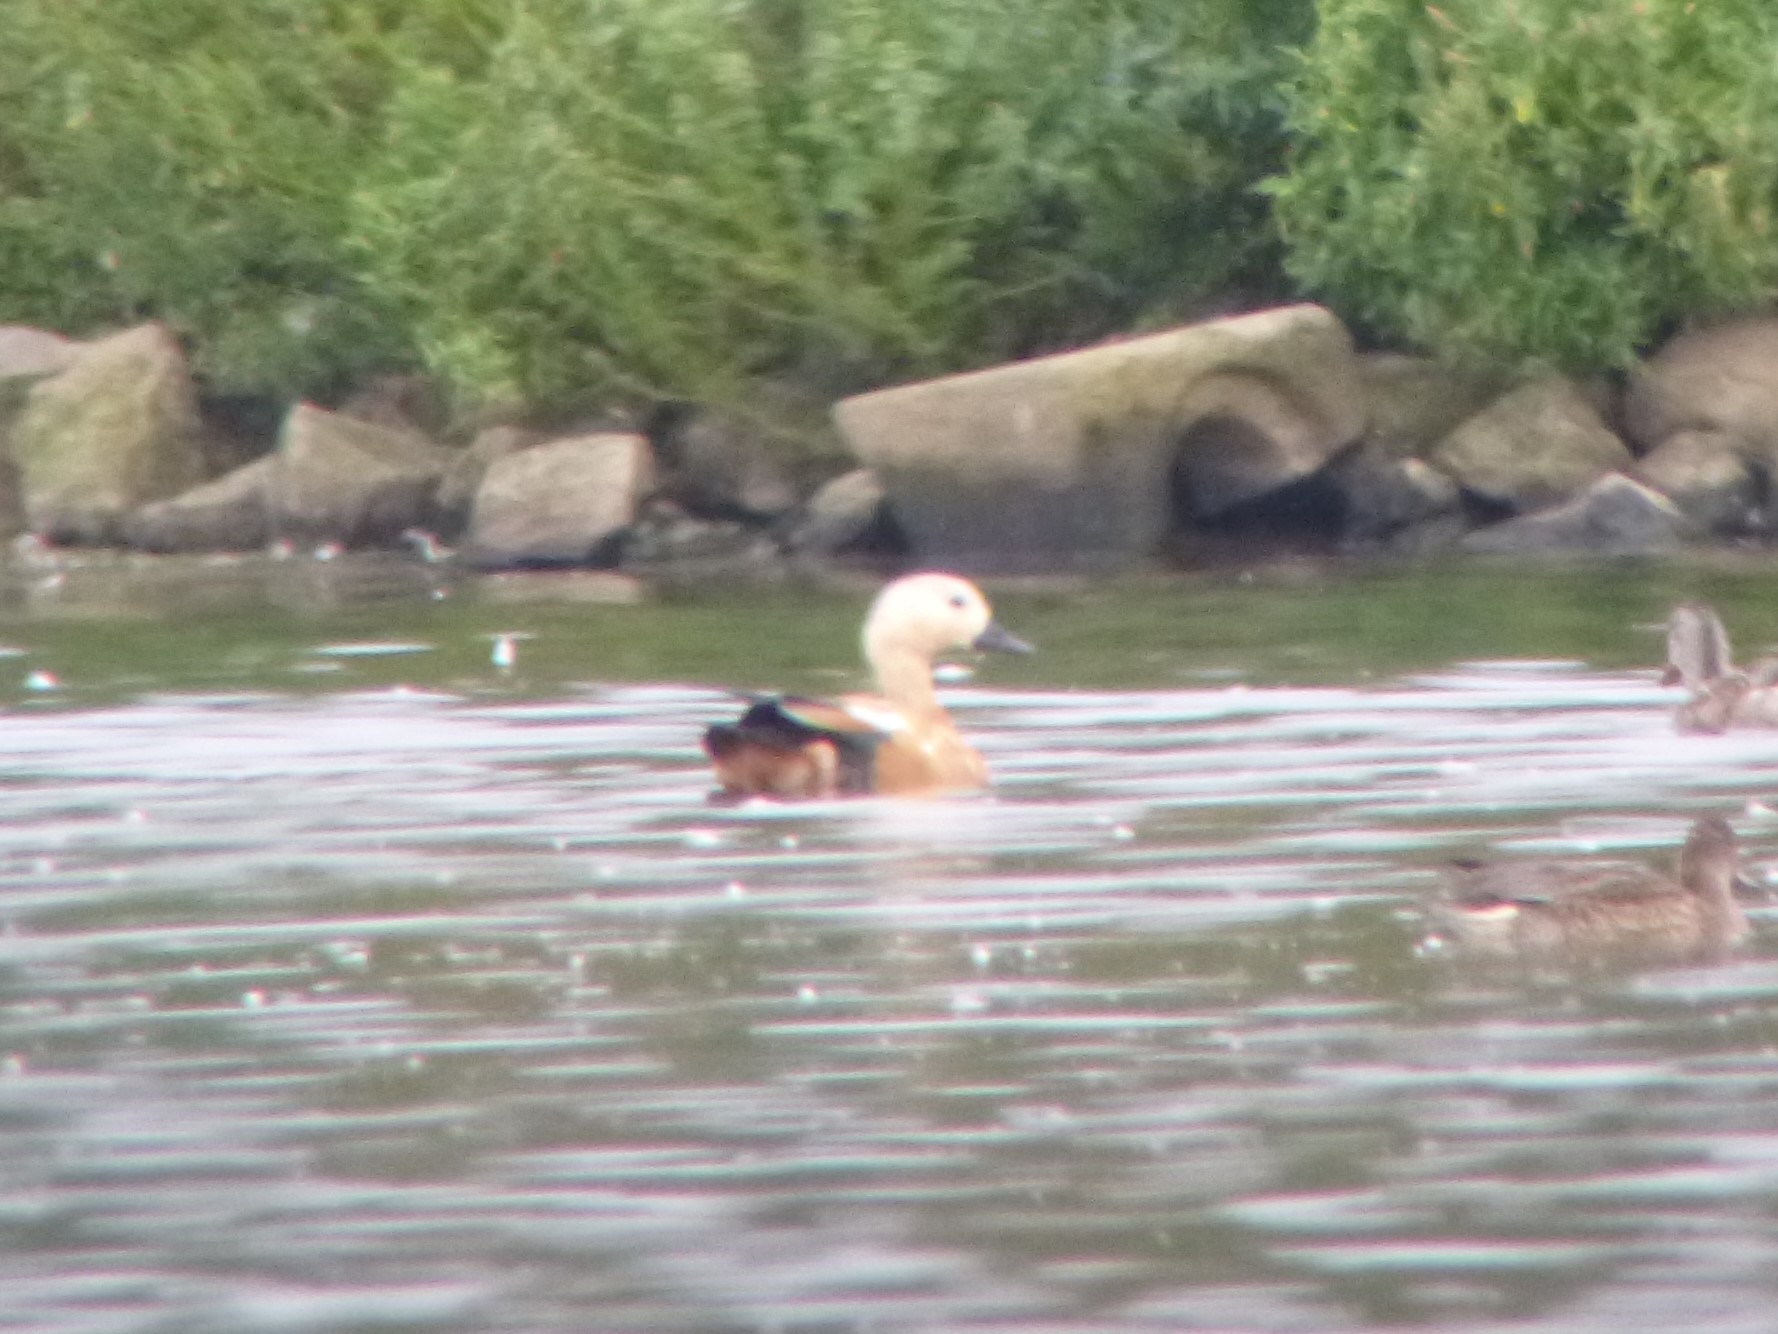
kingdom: Animalia
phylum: Chordata
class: Aves
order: Anseriformes
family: Anatidae
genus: Tadorna
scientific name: Tadorna ferruginea
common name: Ruddy shelduck
